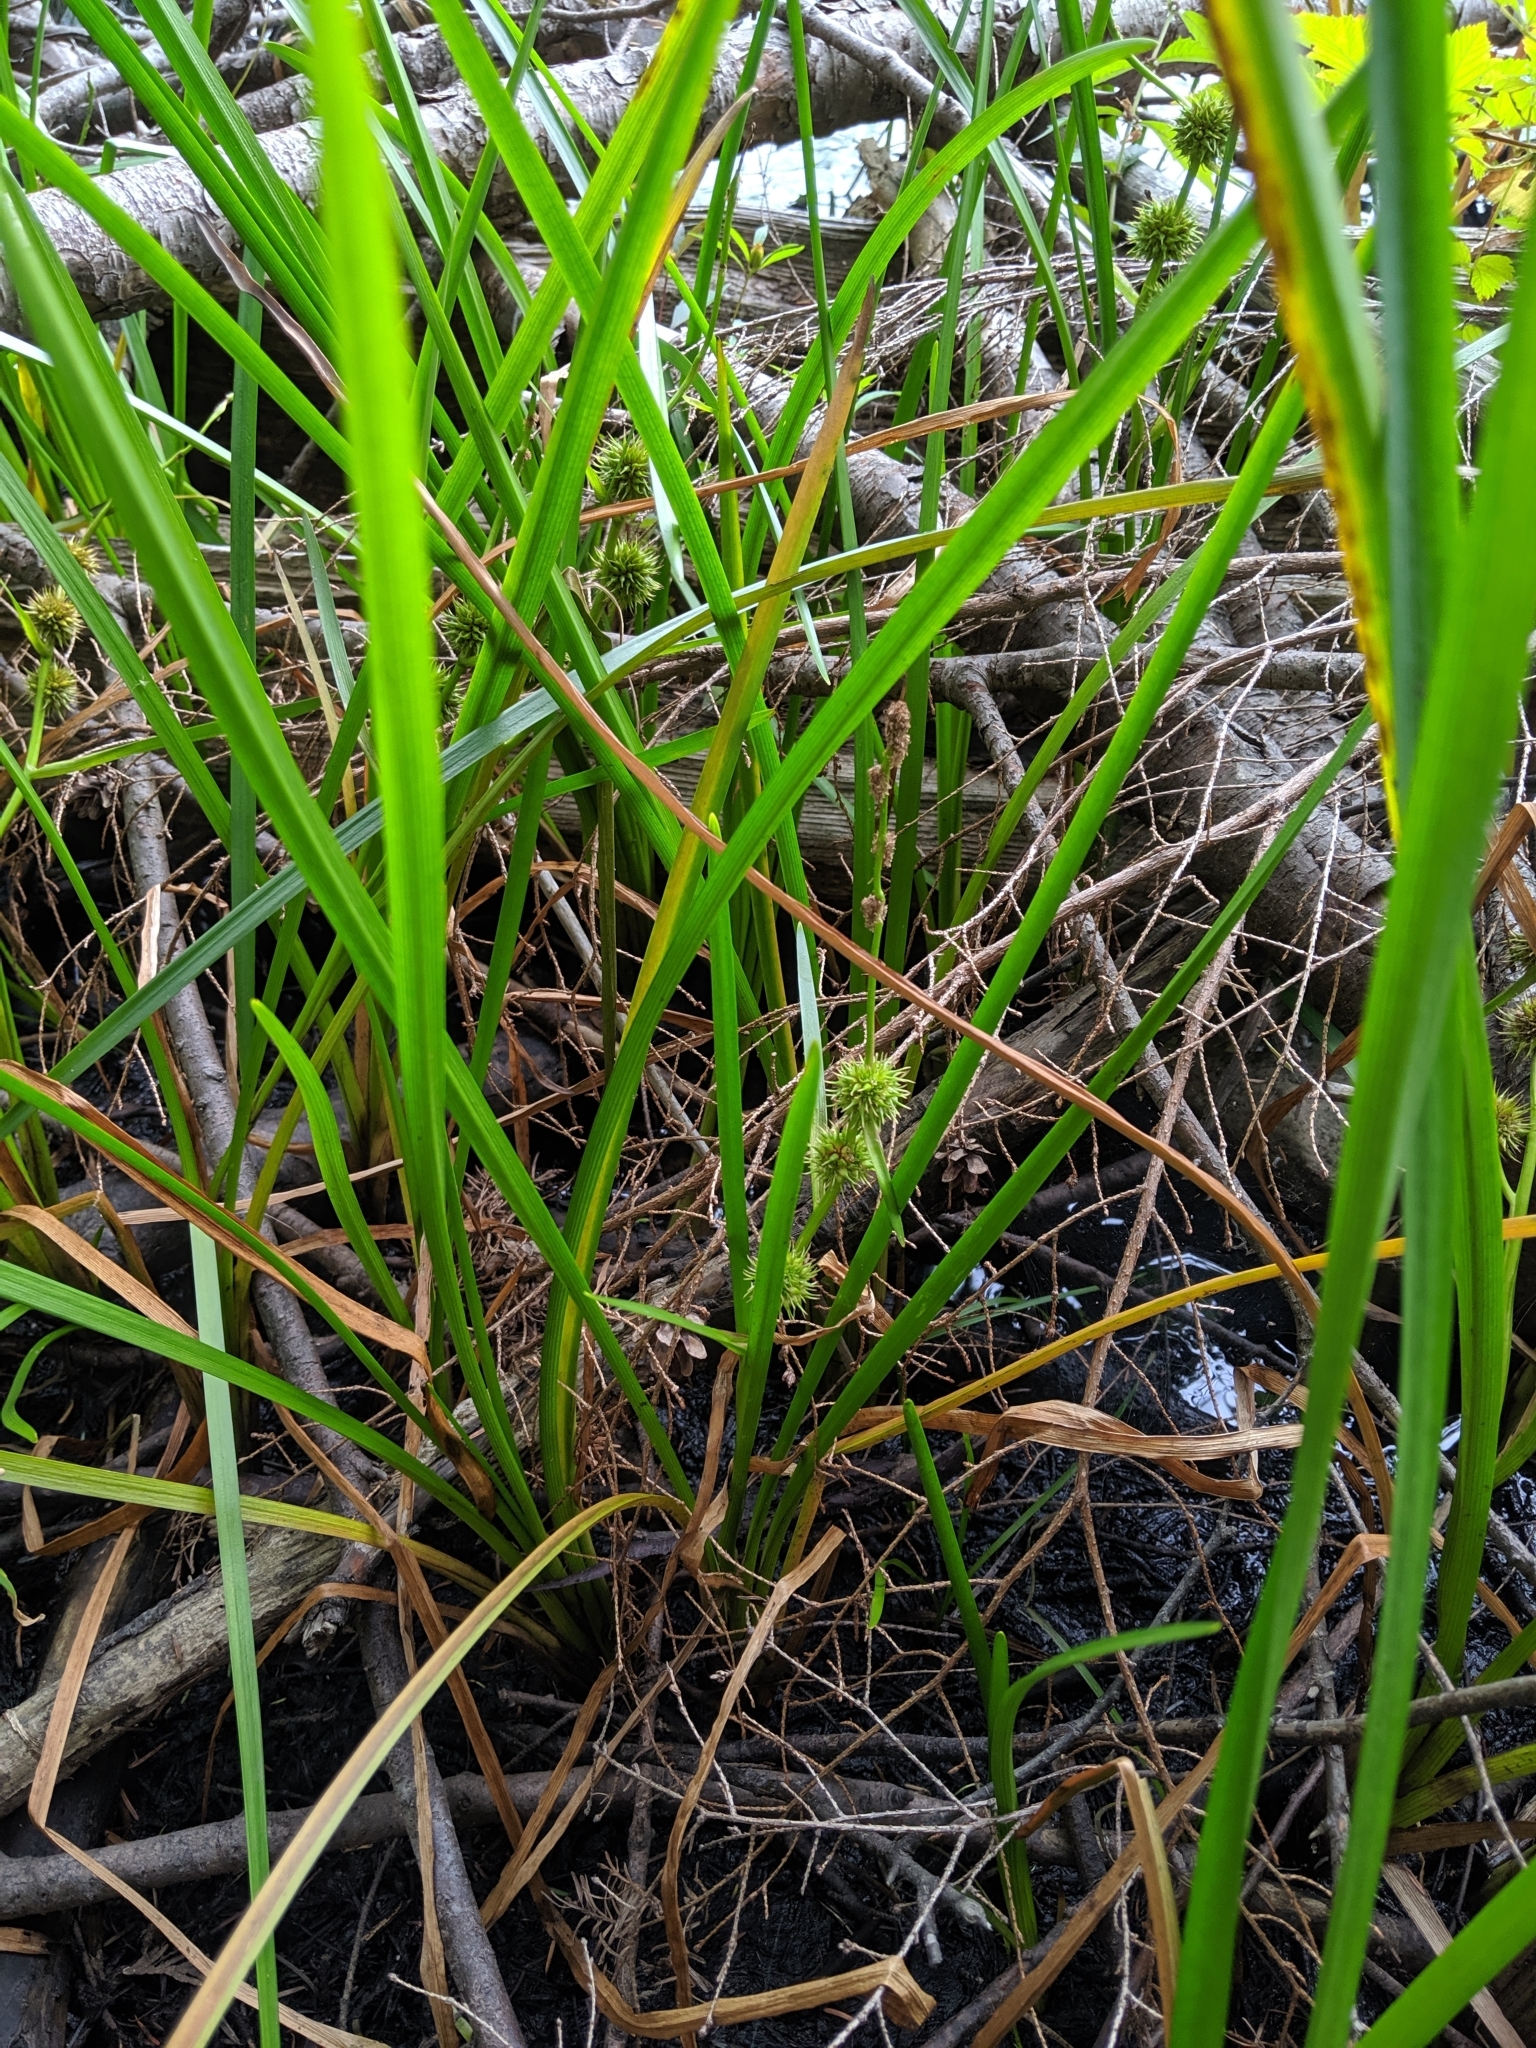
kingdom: Plantae
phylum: Tracheophyta
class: Liliopsida
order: Poales
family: Typhaceae
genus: Sparganium
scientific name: Sparganium emersum
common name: Unbranched bur-reed
